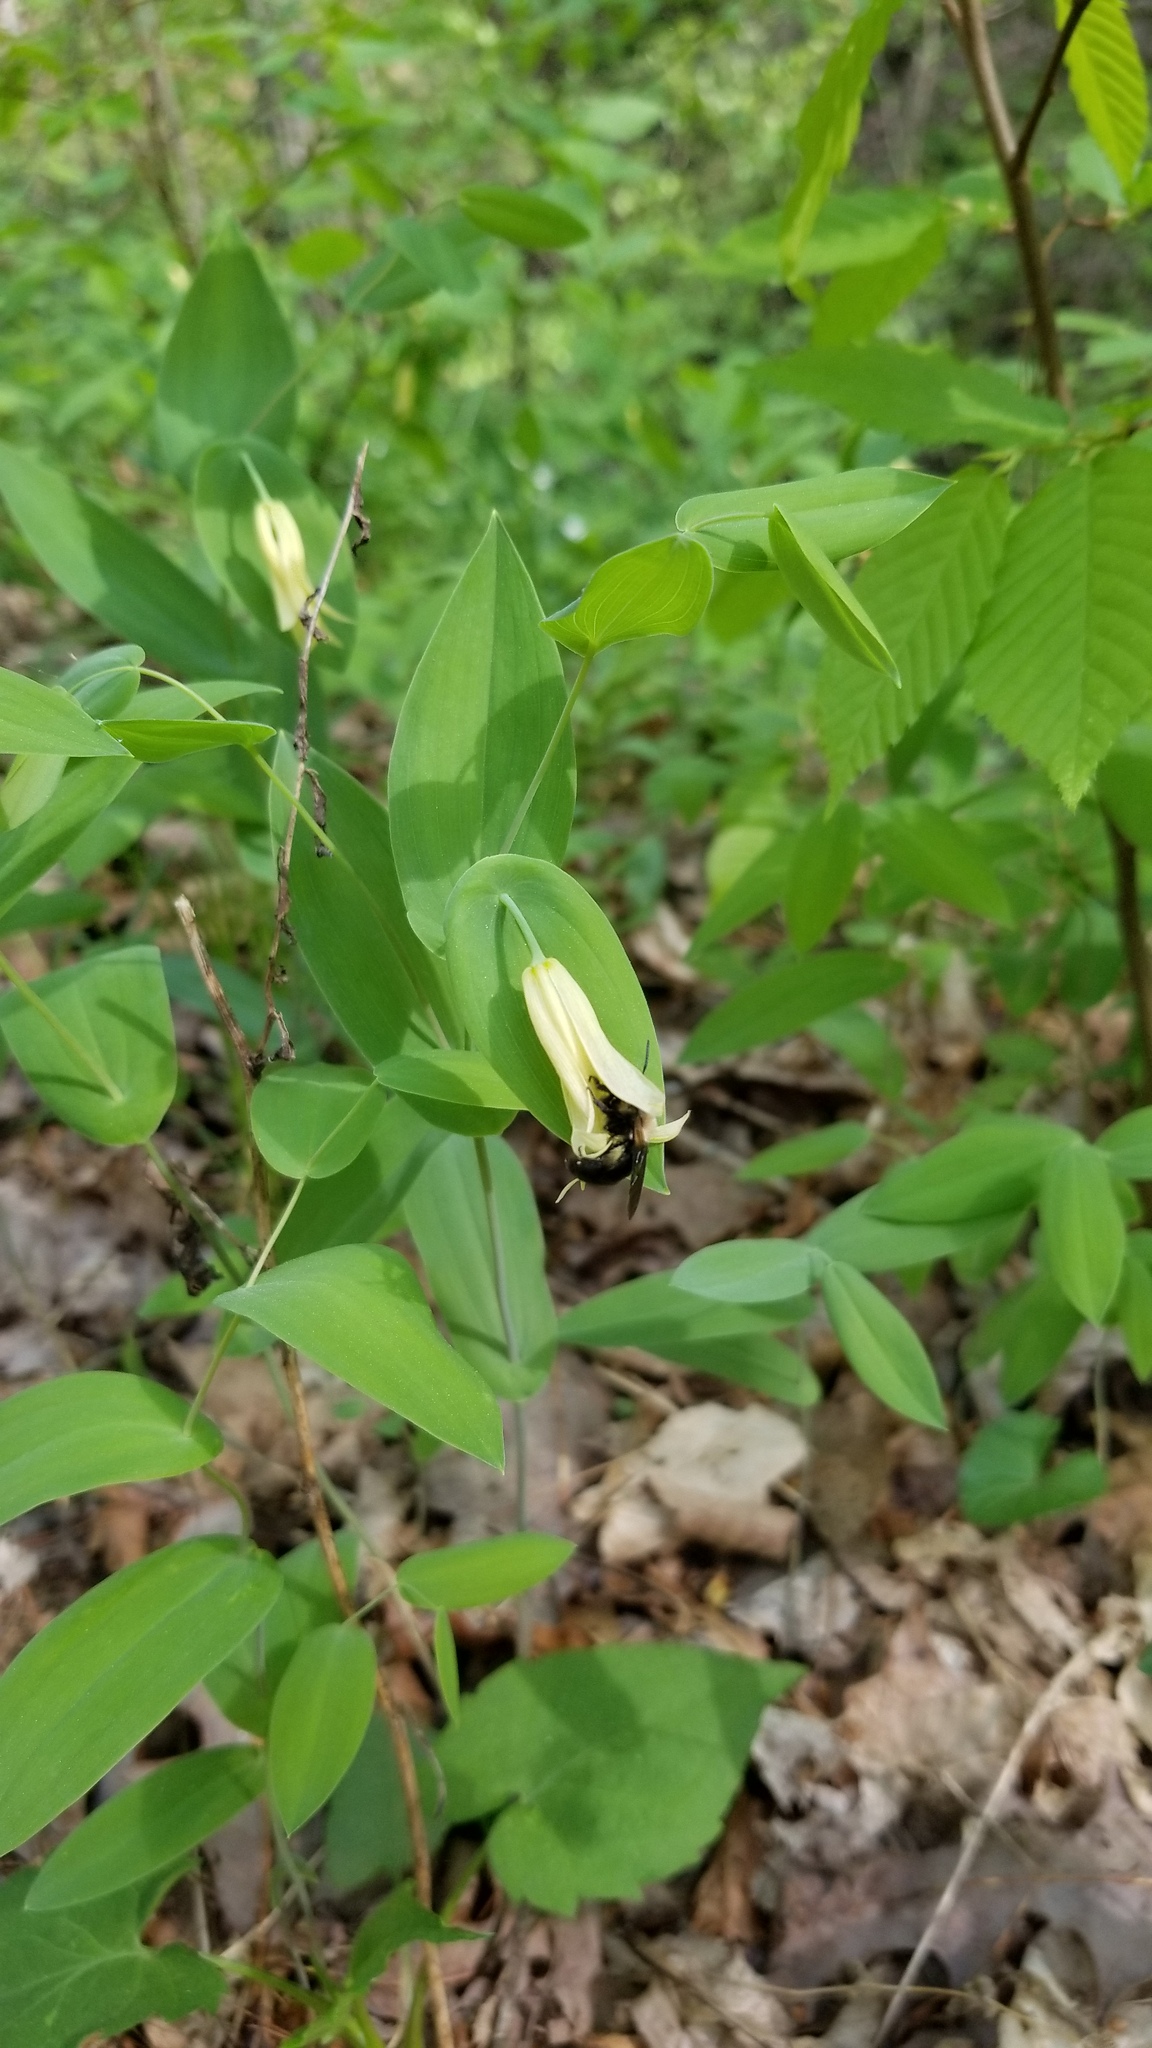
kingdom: Plantae
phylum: Tracheophyta
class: Liliopsida
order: Liliales
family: Colchicaceae
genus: Uvularia
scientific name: Uvularia perfoliata
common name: Perfoliate bellwort
